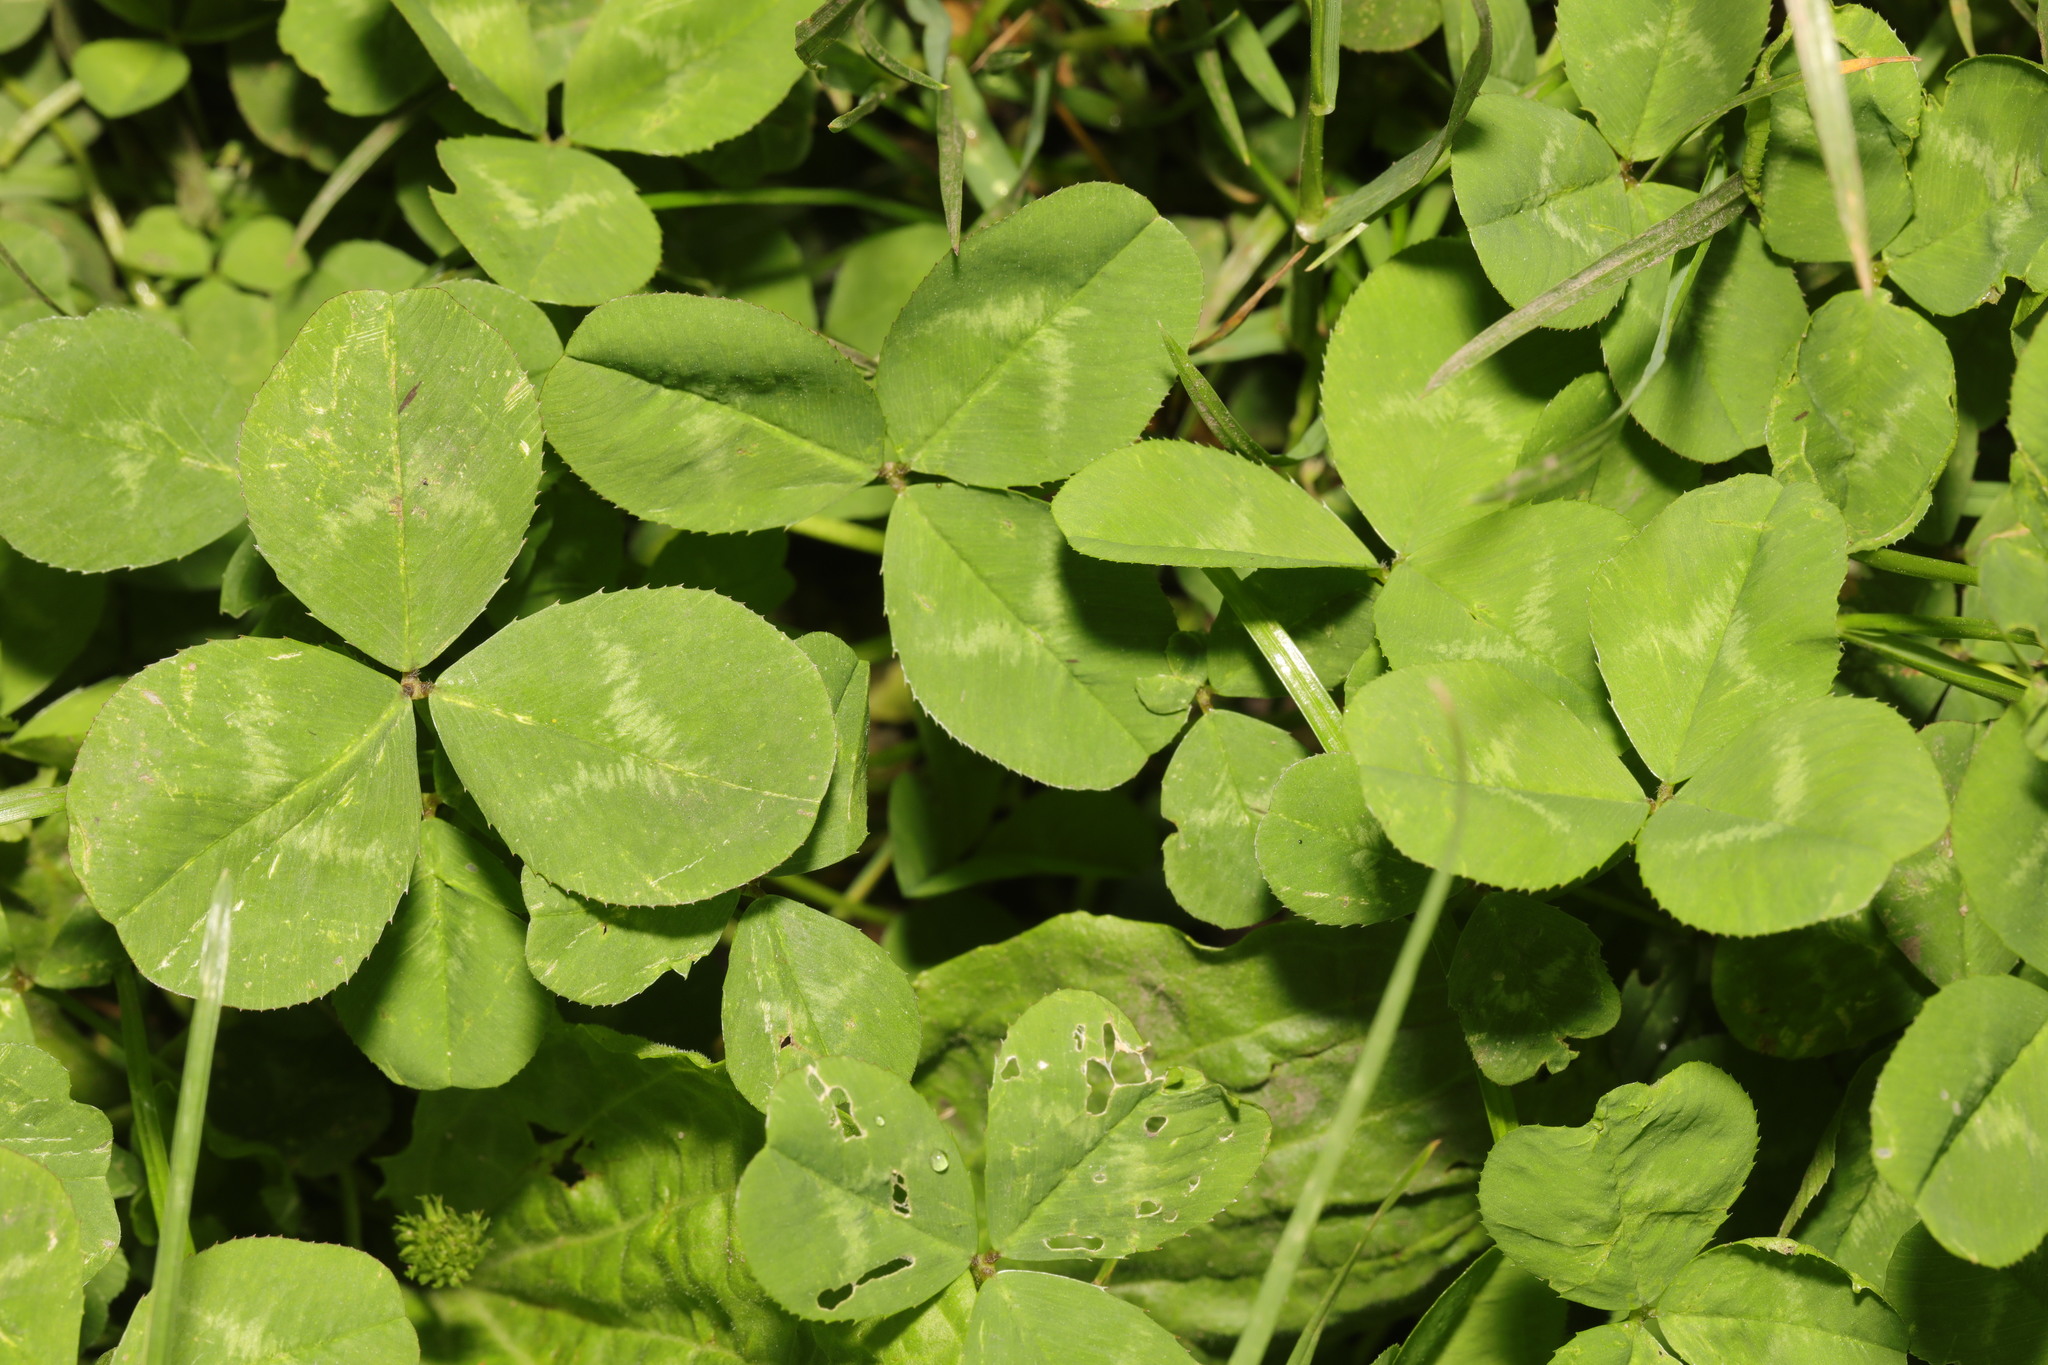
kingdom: Plantae
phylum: Tracheophyta
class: Magnoliopsida
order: Fabales
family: Fabaceae
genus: Trifolium
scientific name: Trifolium repens
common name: White clover
